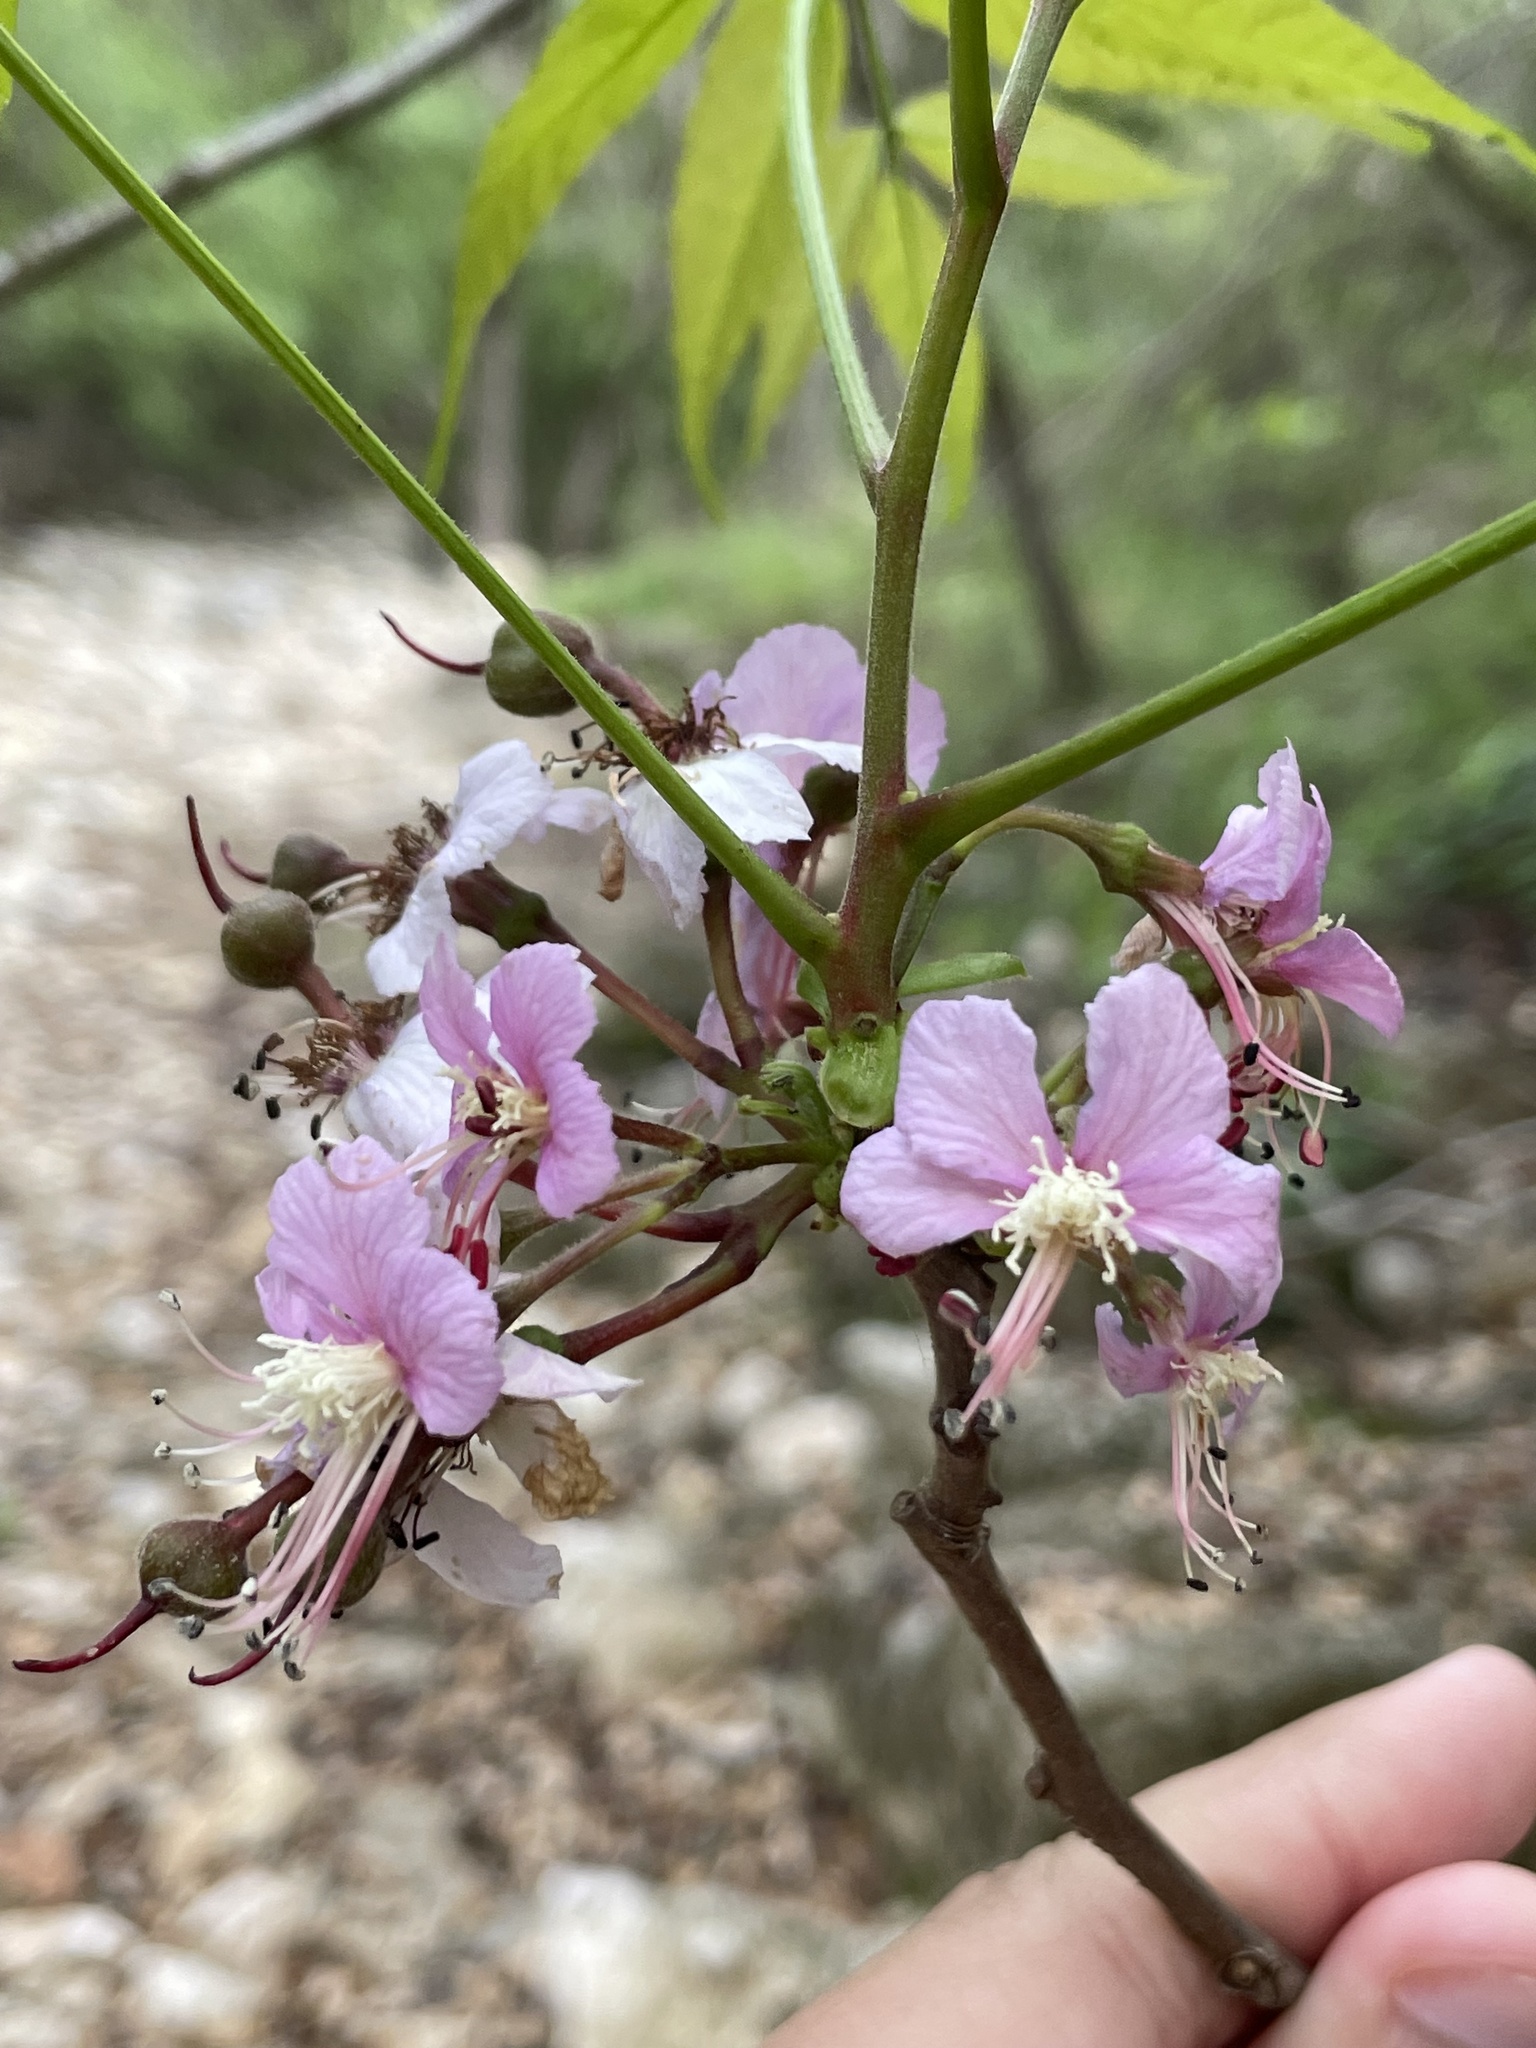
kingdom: Plantae
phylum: Tracheophyta
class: Magnoliopsida
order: Sapindales
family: Sapindaceae
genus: Ungnadia
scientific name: Ungnadia speciosa
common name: Texas-buckeye
